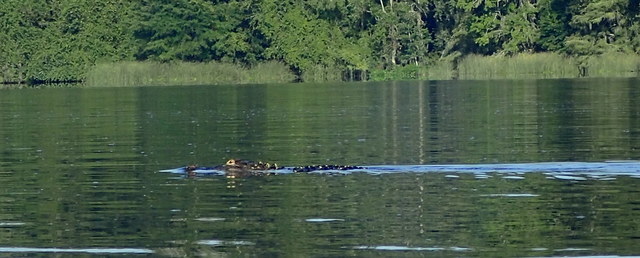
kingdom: Animalia
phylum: Chordata
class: Crocodylia
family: Alligatoridae
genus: Alligator
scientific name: Alligator mississippiensis
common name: American alligator
